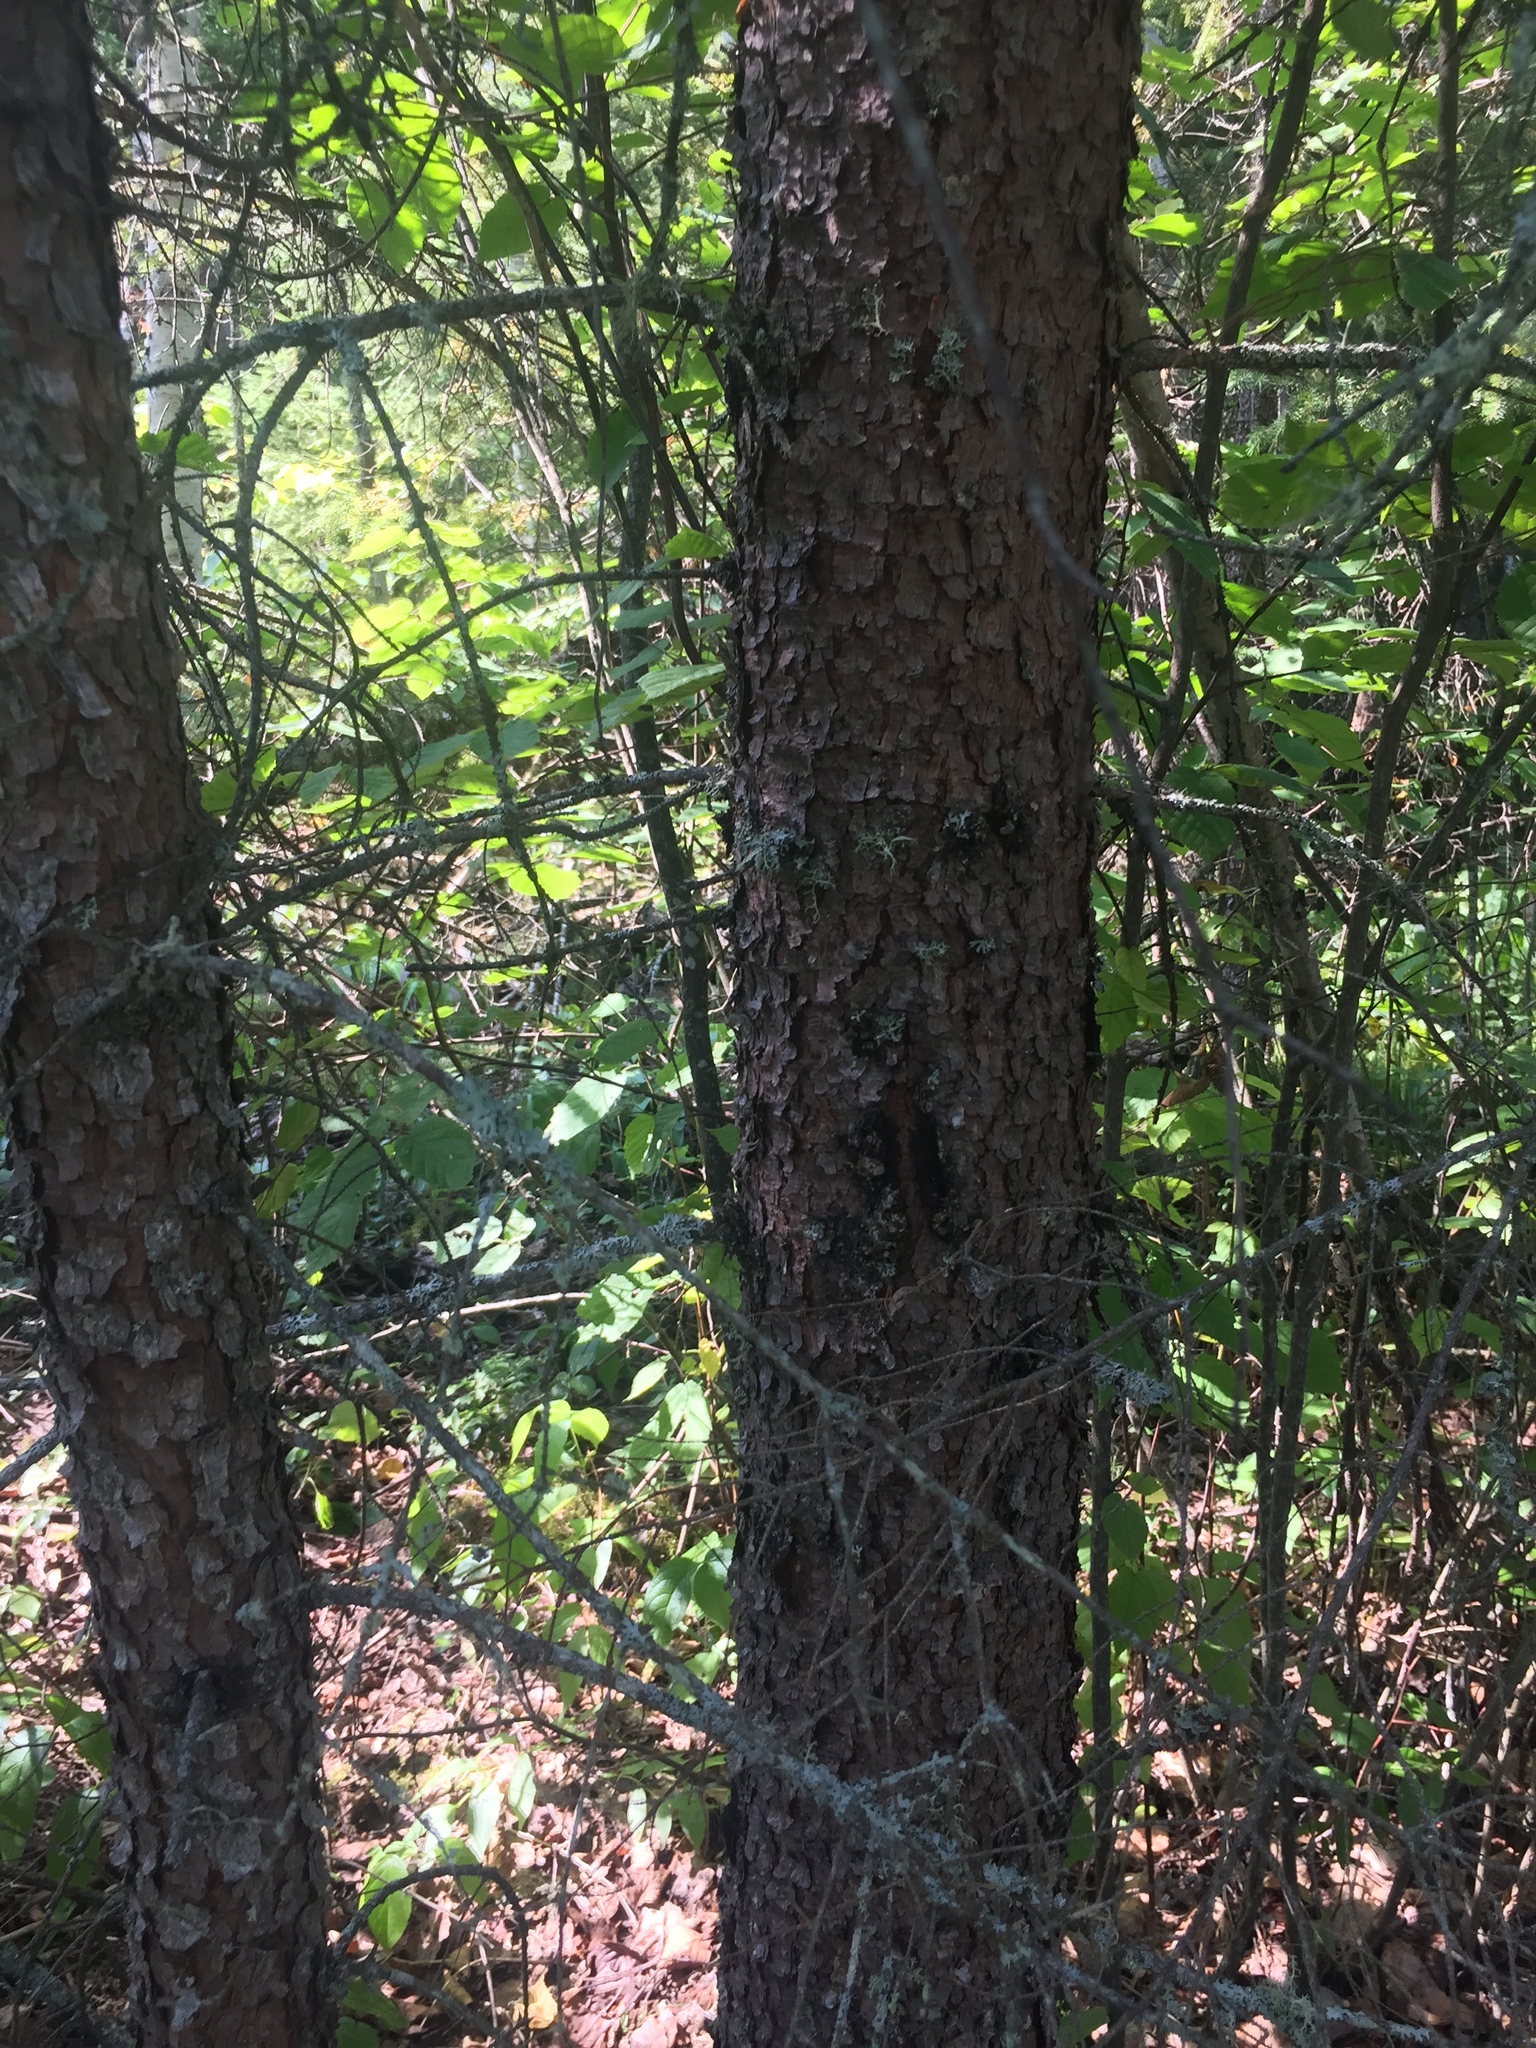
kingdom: Plantae
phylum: Tracheophyta
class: Pinopsida
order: Pinales
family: Pinaceae
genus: Picea
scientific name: Picea mariana
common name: Black spruce
